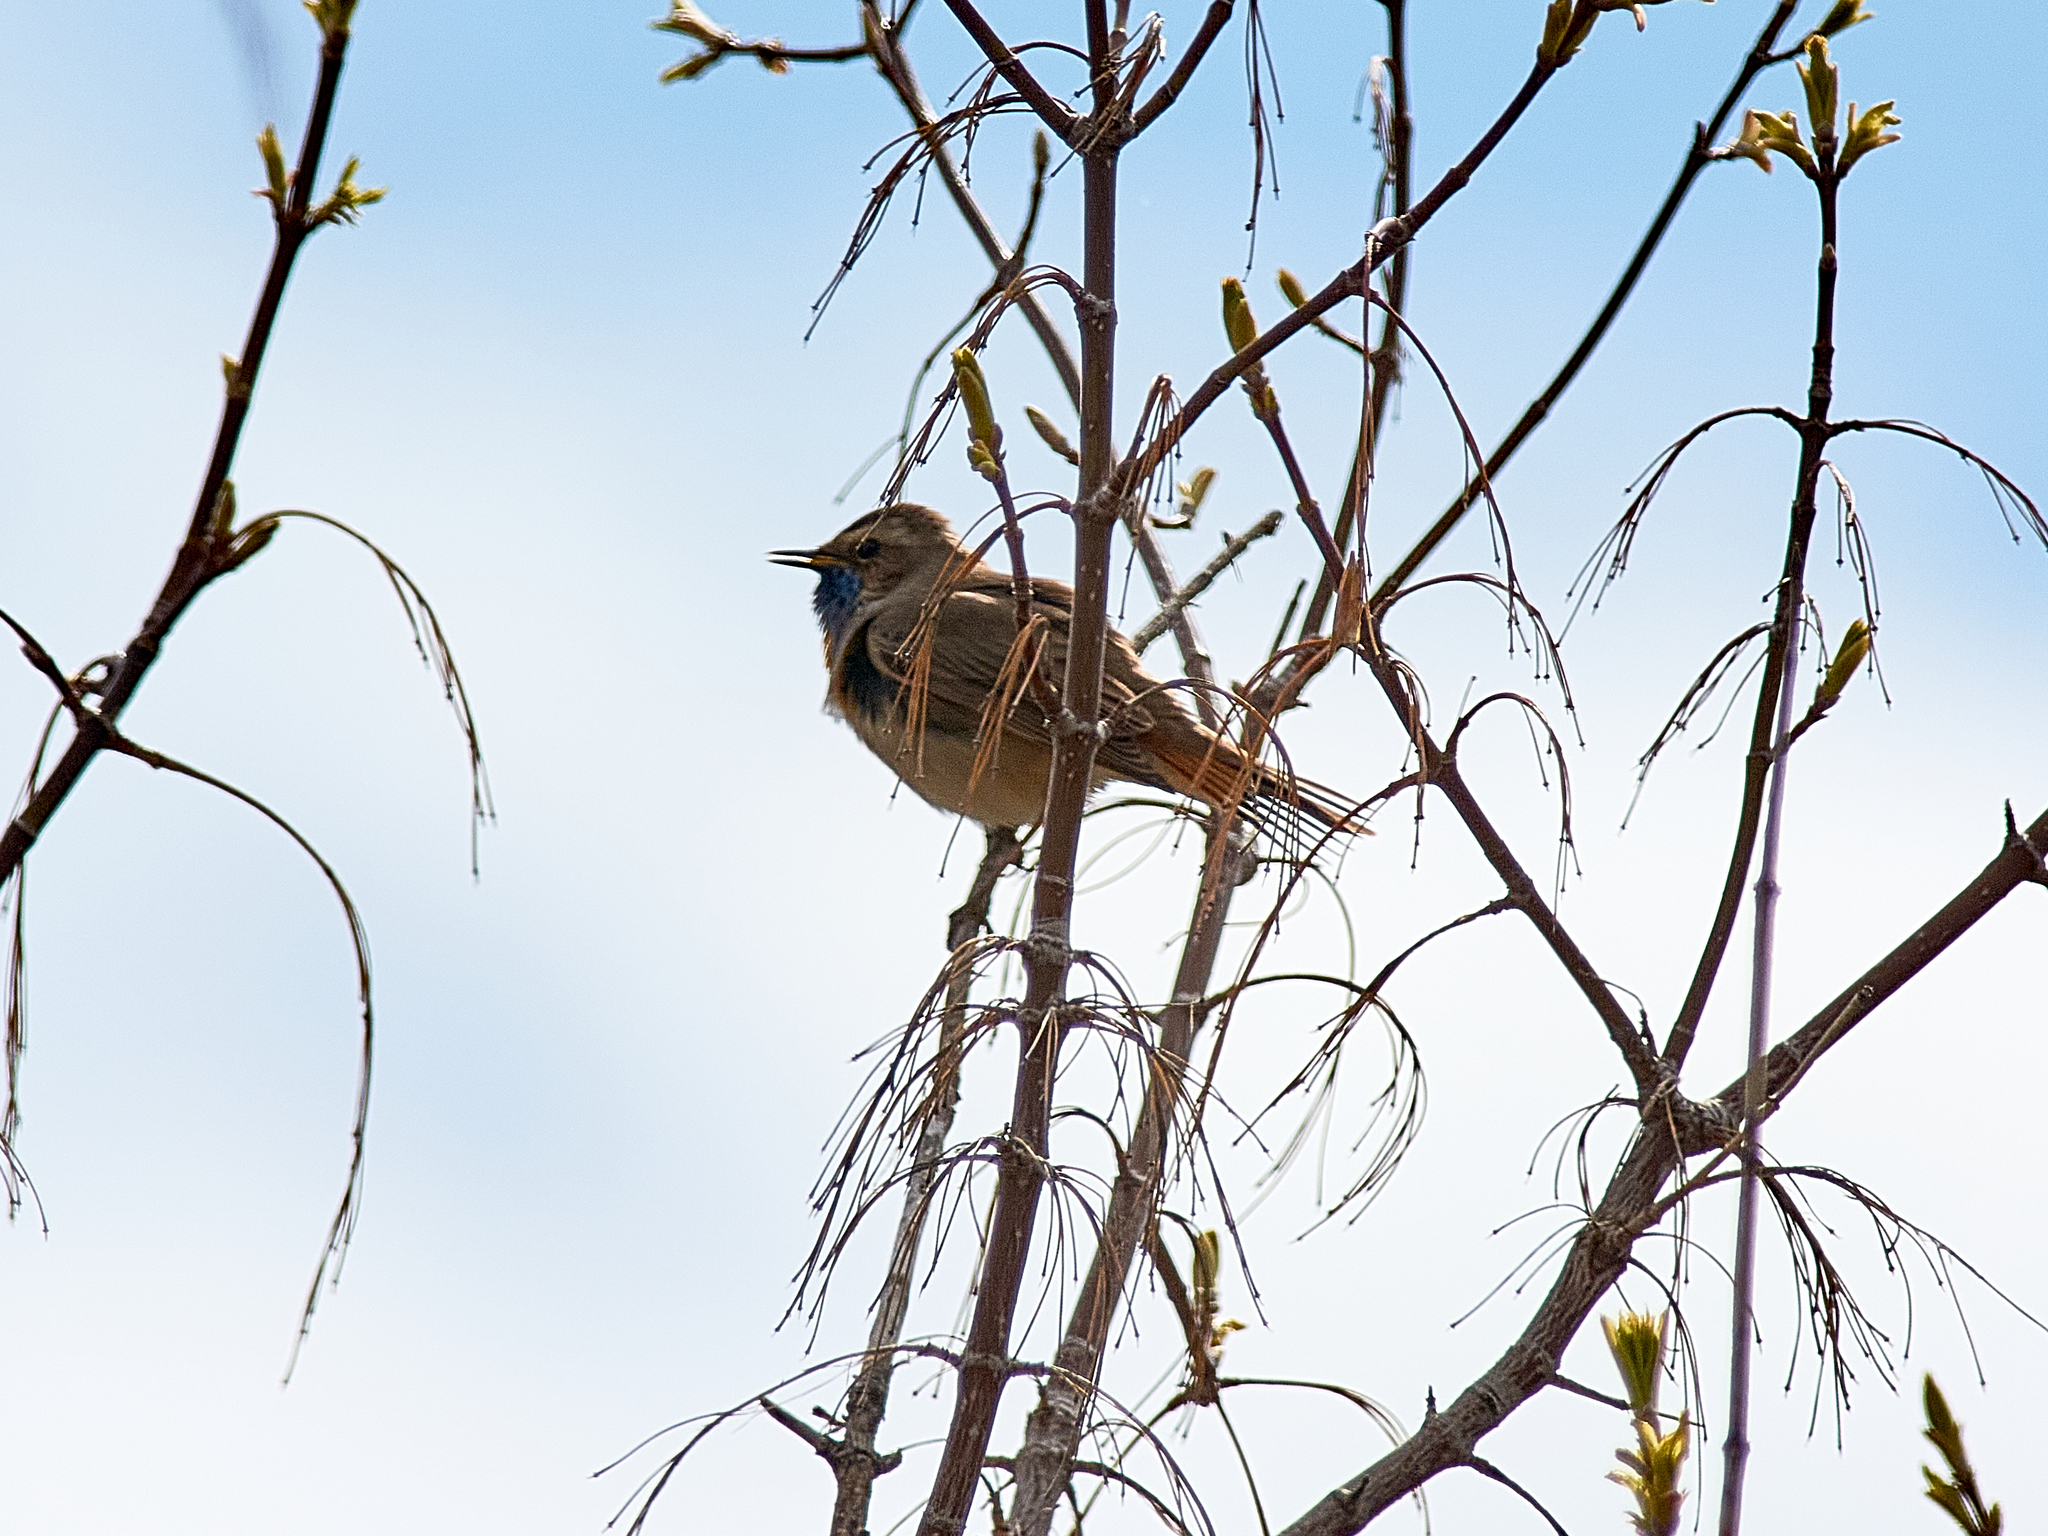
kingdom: Animalia
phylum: Chordata
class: Aves
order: Passeriformes
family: Muscicapidae
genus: Luscinia
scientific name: Luscinia svecica
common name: Bluethroat
